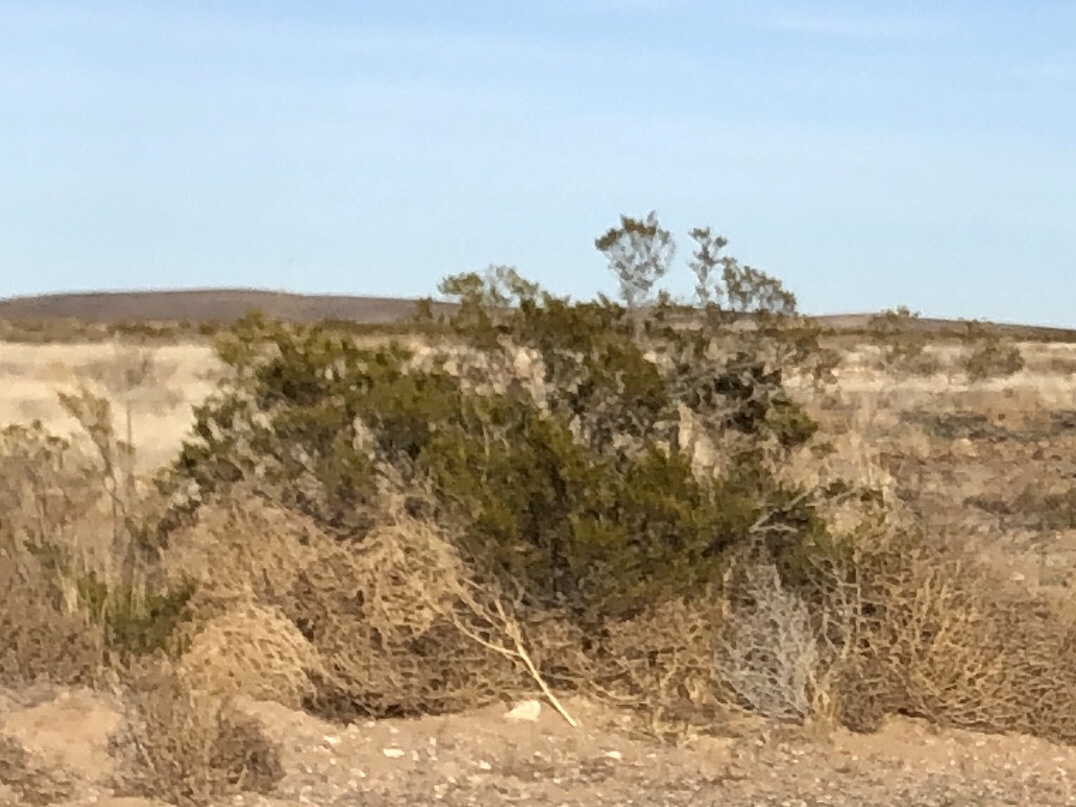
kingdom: Plantae
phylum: Tracheophyta
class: Magnoliopsida
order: Zygophyllales
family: Zygophyllaceae
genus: Larrea
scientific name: Larrea tridentata
